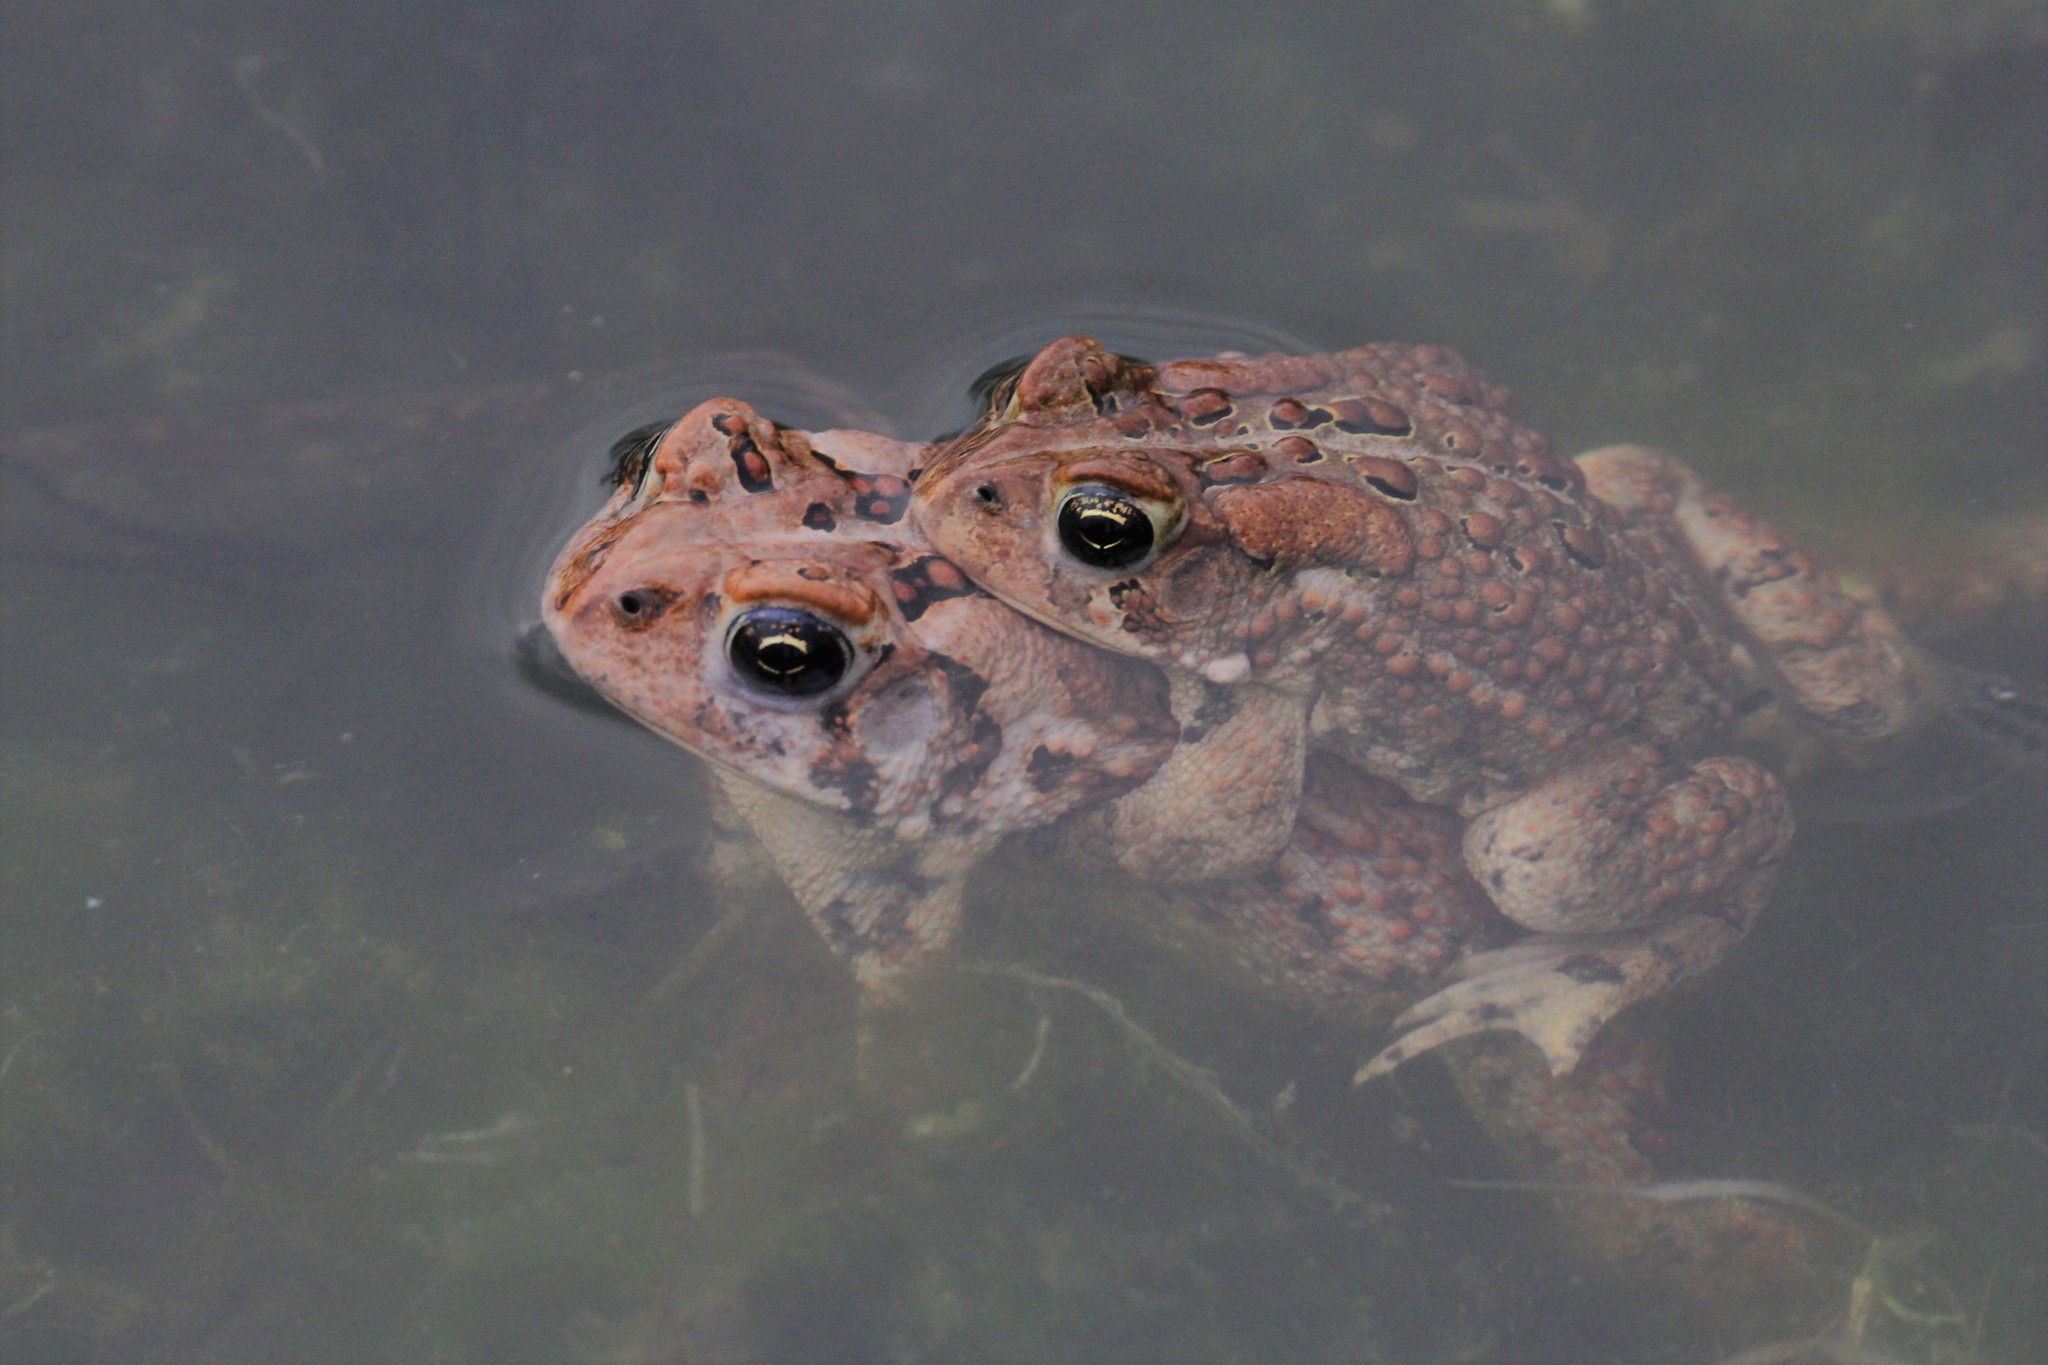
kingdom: Animalia
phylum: Chordata
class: Amphibia
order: Anura
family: Bufonidae
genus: Anaxyrus
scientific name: Anaxyrus americanus
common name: American toad
